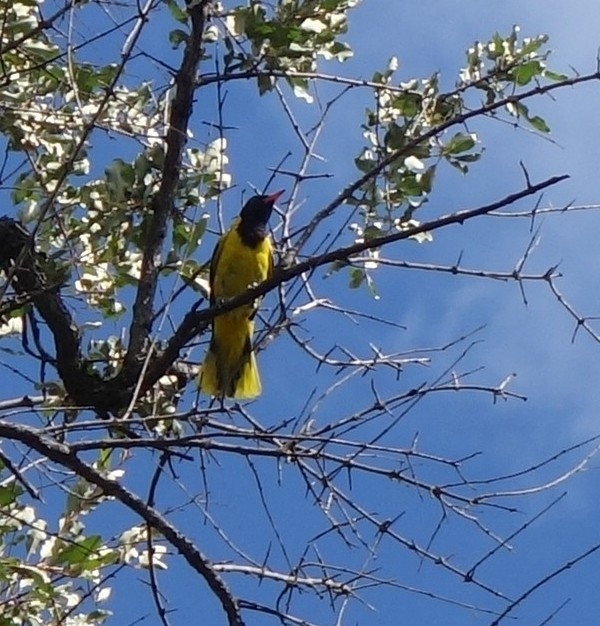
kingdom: Animalia
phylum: Chordata
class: Aves
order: Passeriformes
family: Oriolidae
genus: Oriolus
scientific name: Oriolus larvatus
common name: Black-headed oriole
